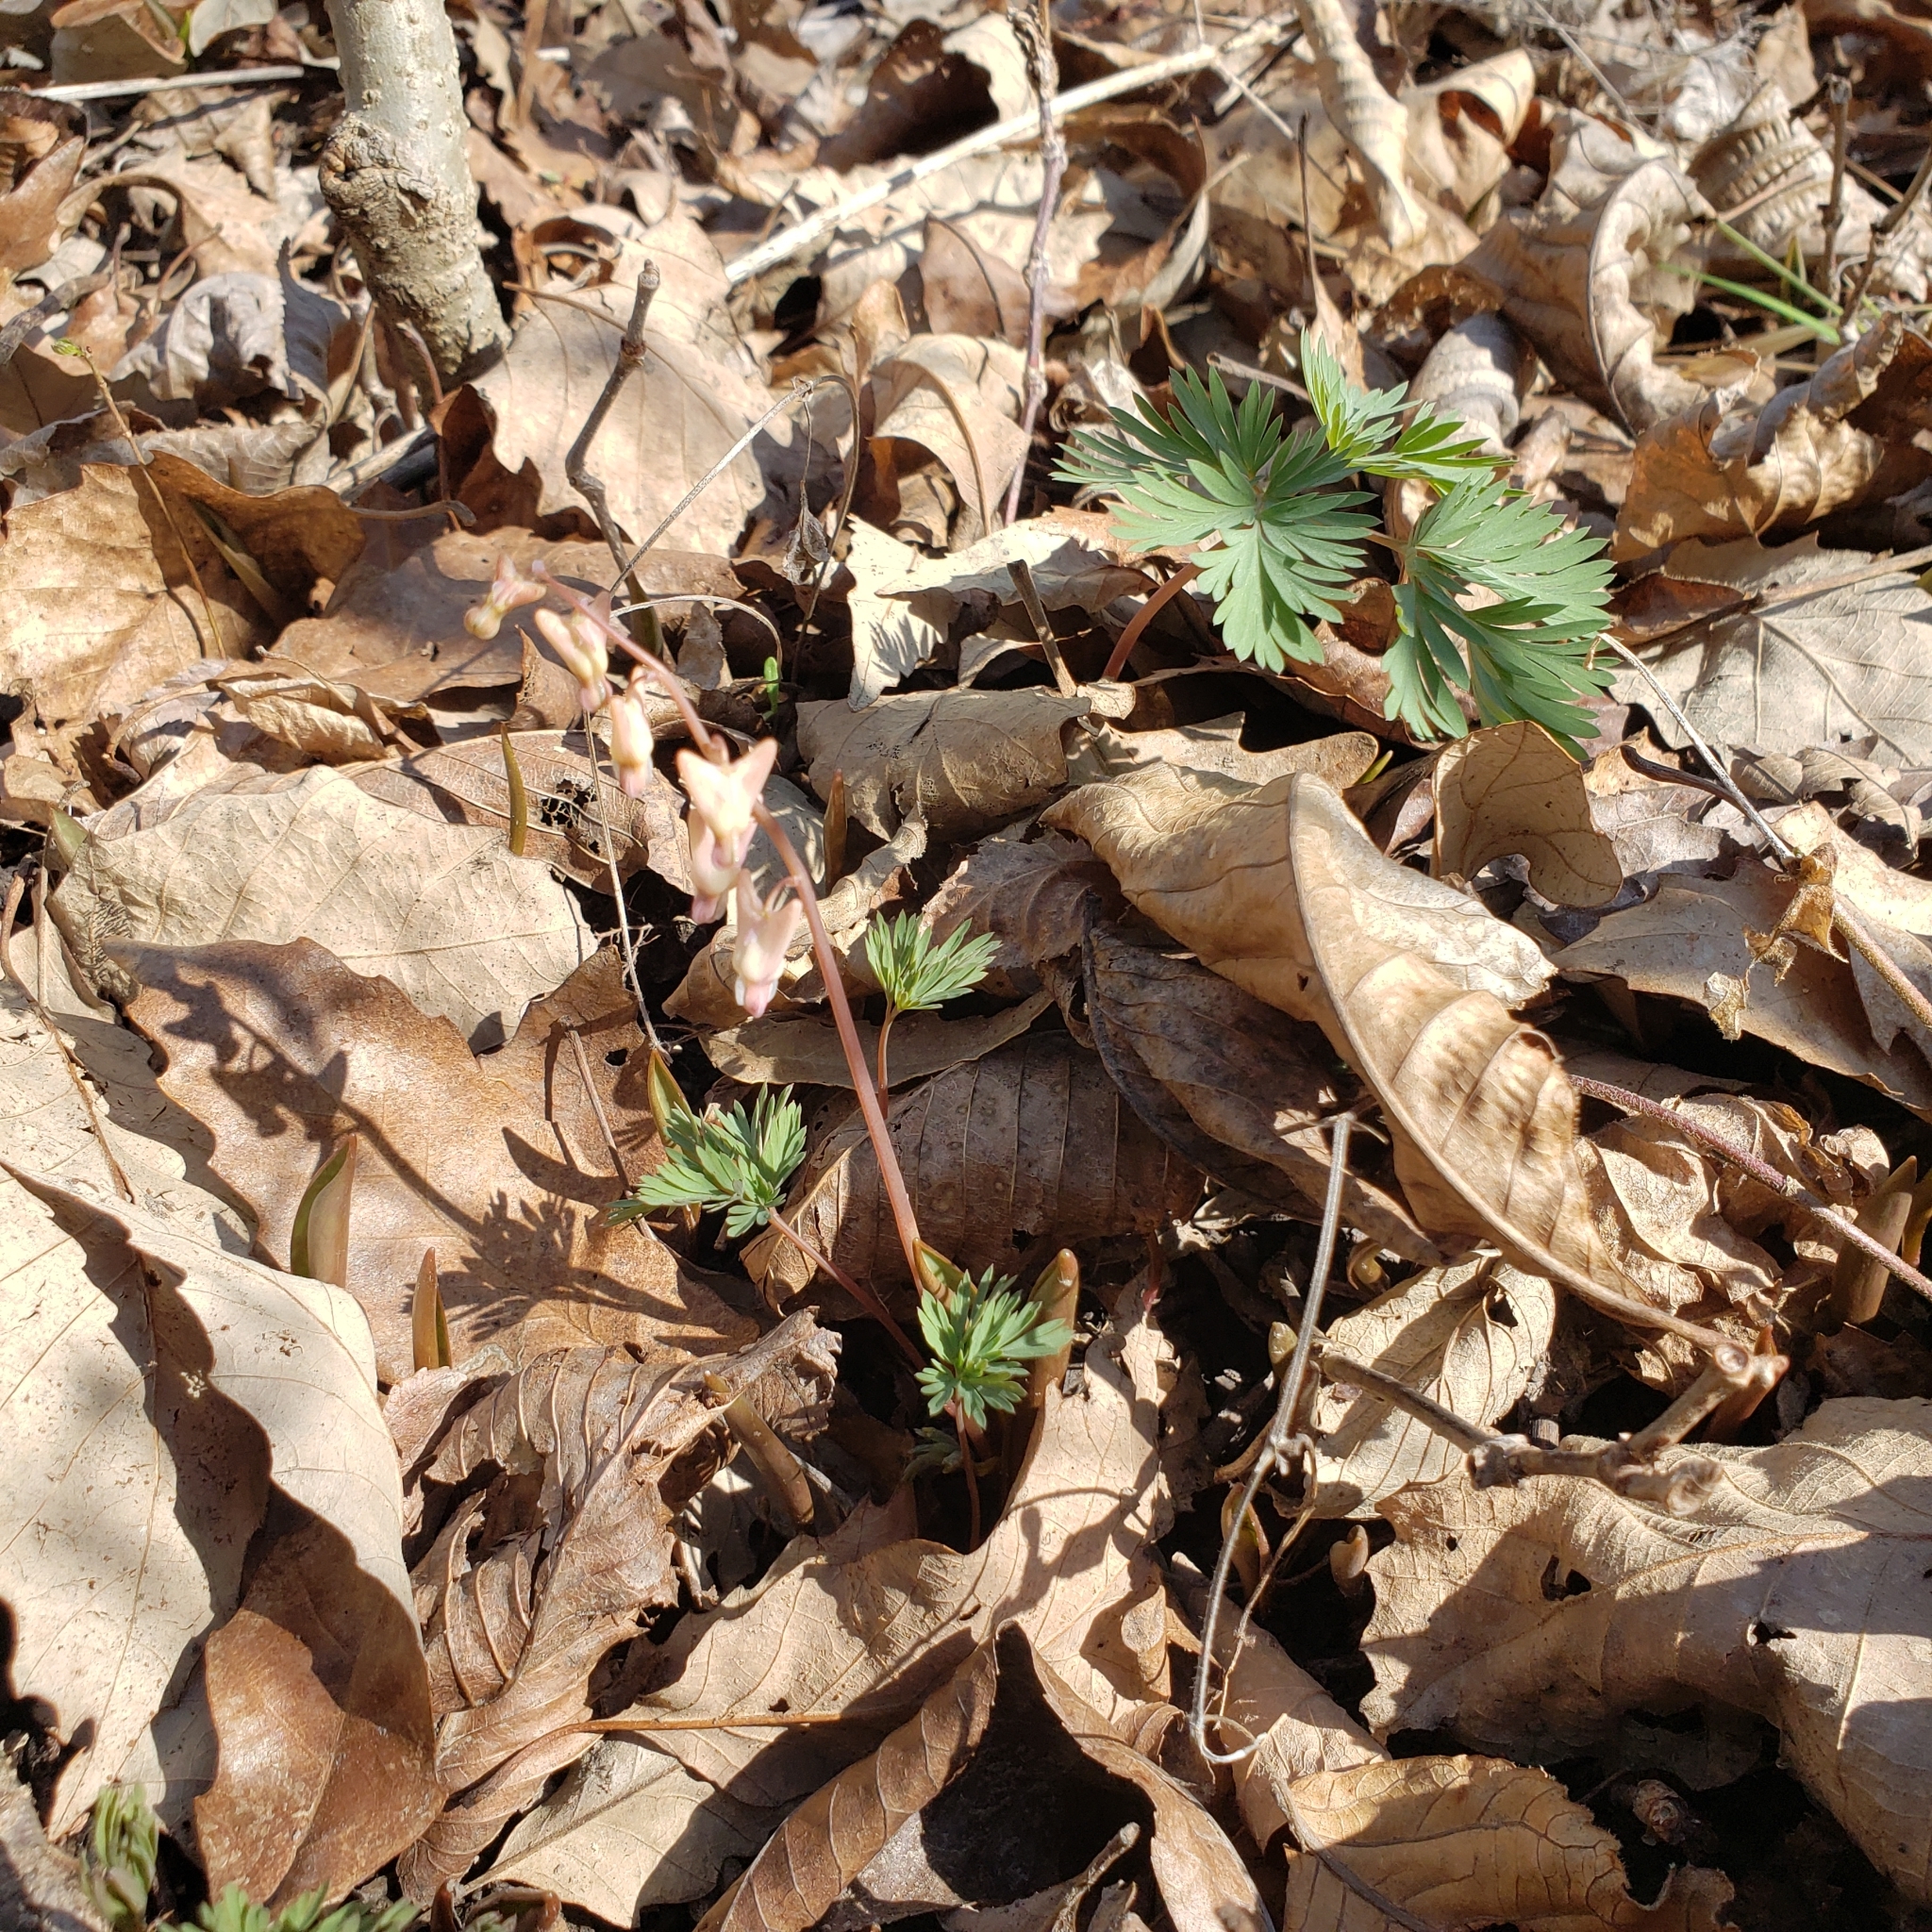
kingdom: Plantae
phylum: Tracheophyta
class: Magnoliopsida
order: Ranunculales
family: Papaveraceae
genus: Dicentra
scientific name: Dicentra cucullaria
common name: Dutchman's breeches
